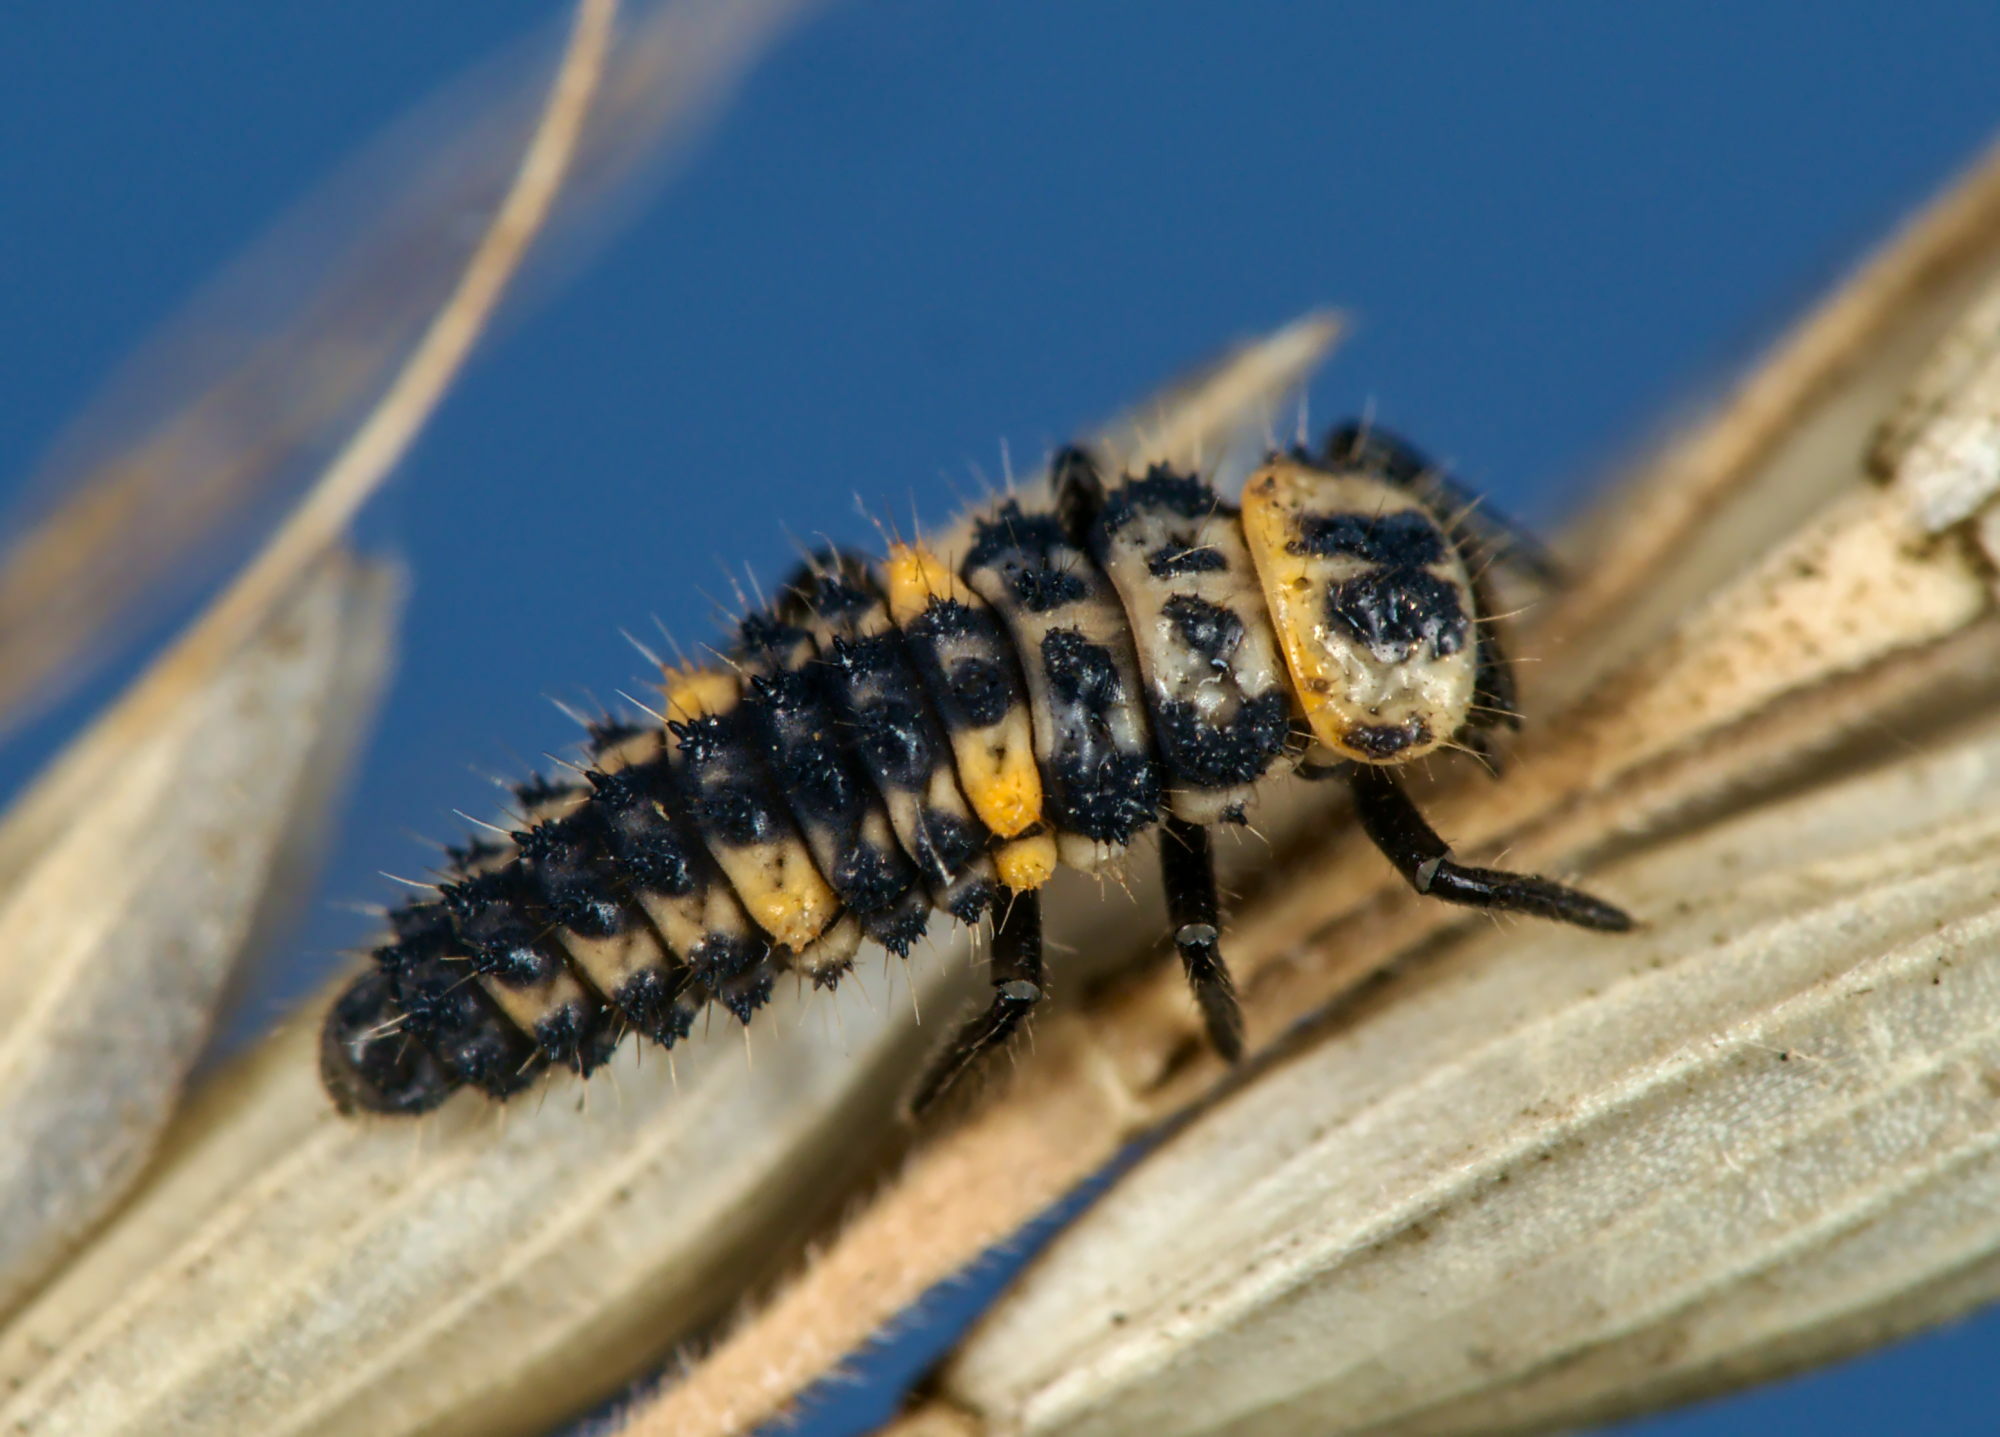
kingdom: Animalia
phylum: Arthropoda
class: Insecta
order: Coleoptera
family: Coccinellidae
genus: Hippodamia
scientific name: Hippodamia variegata
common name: Ladybird beetle
